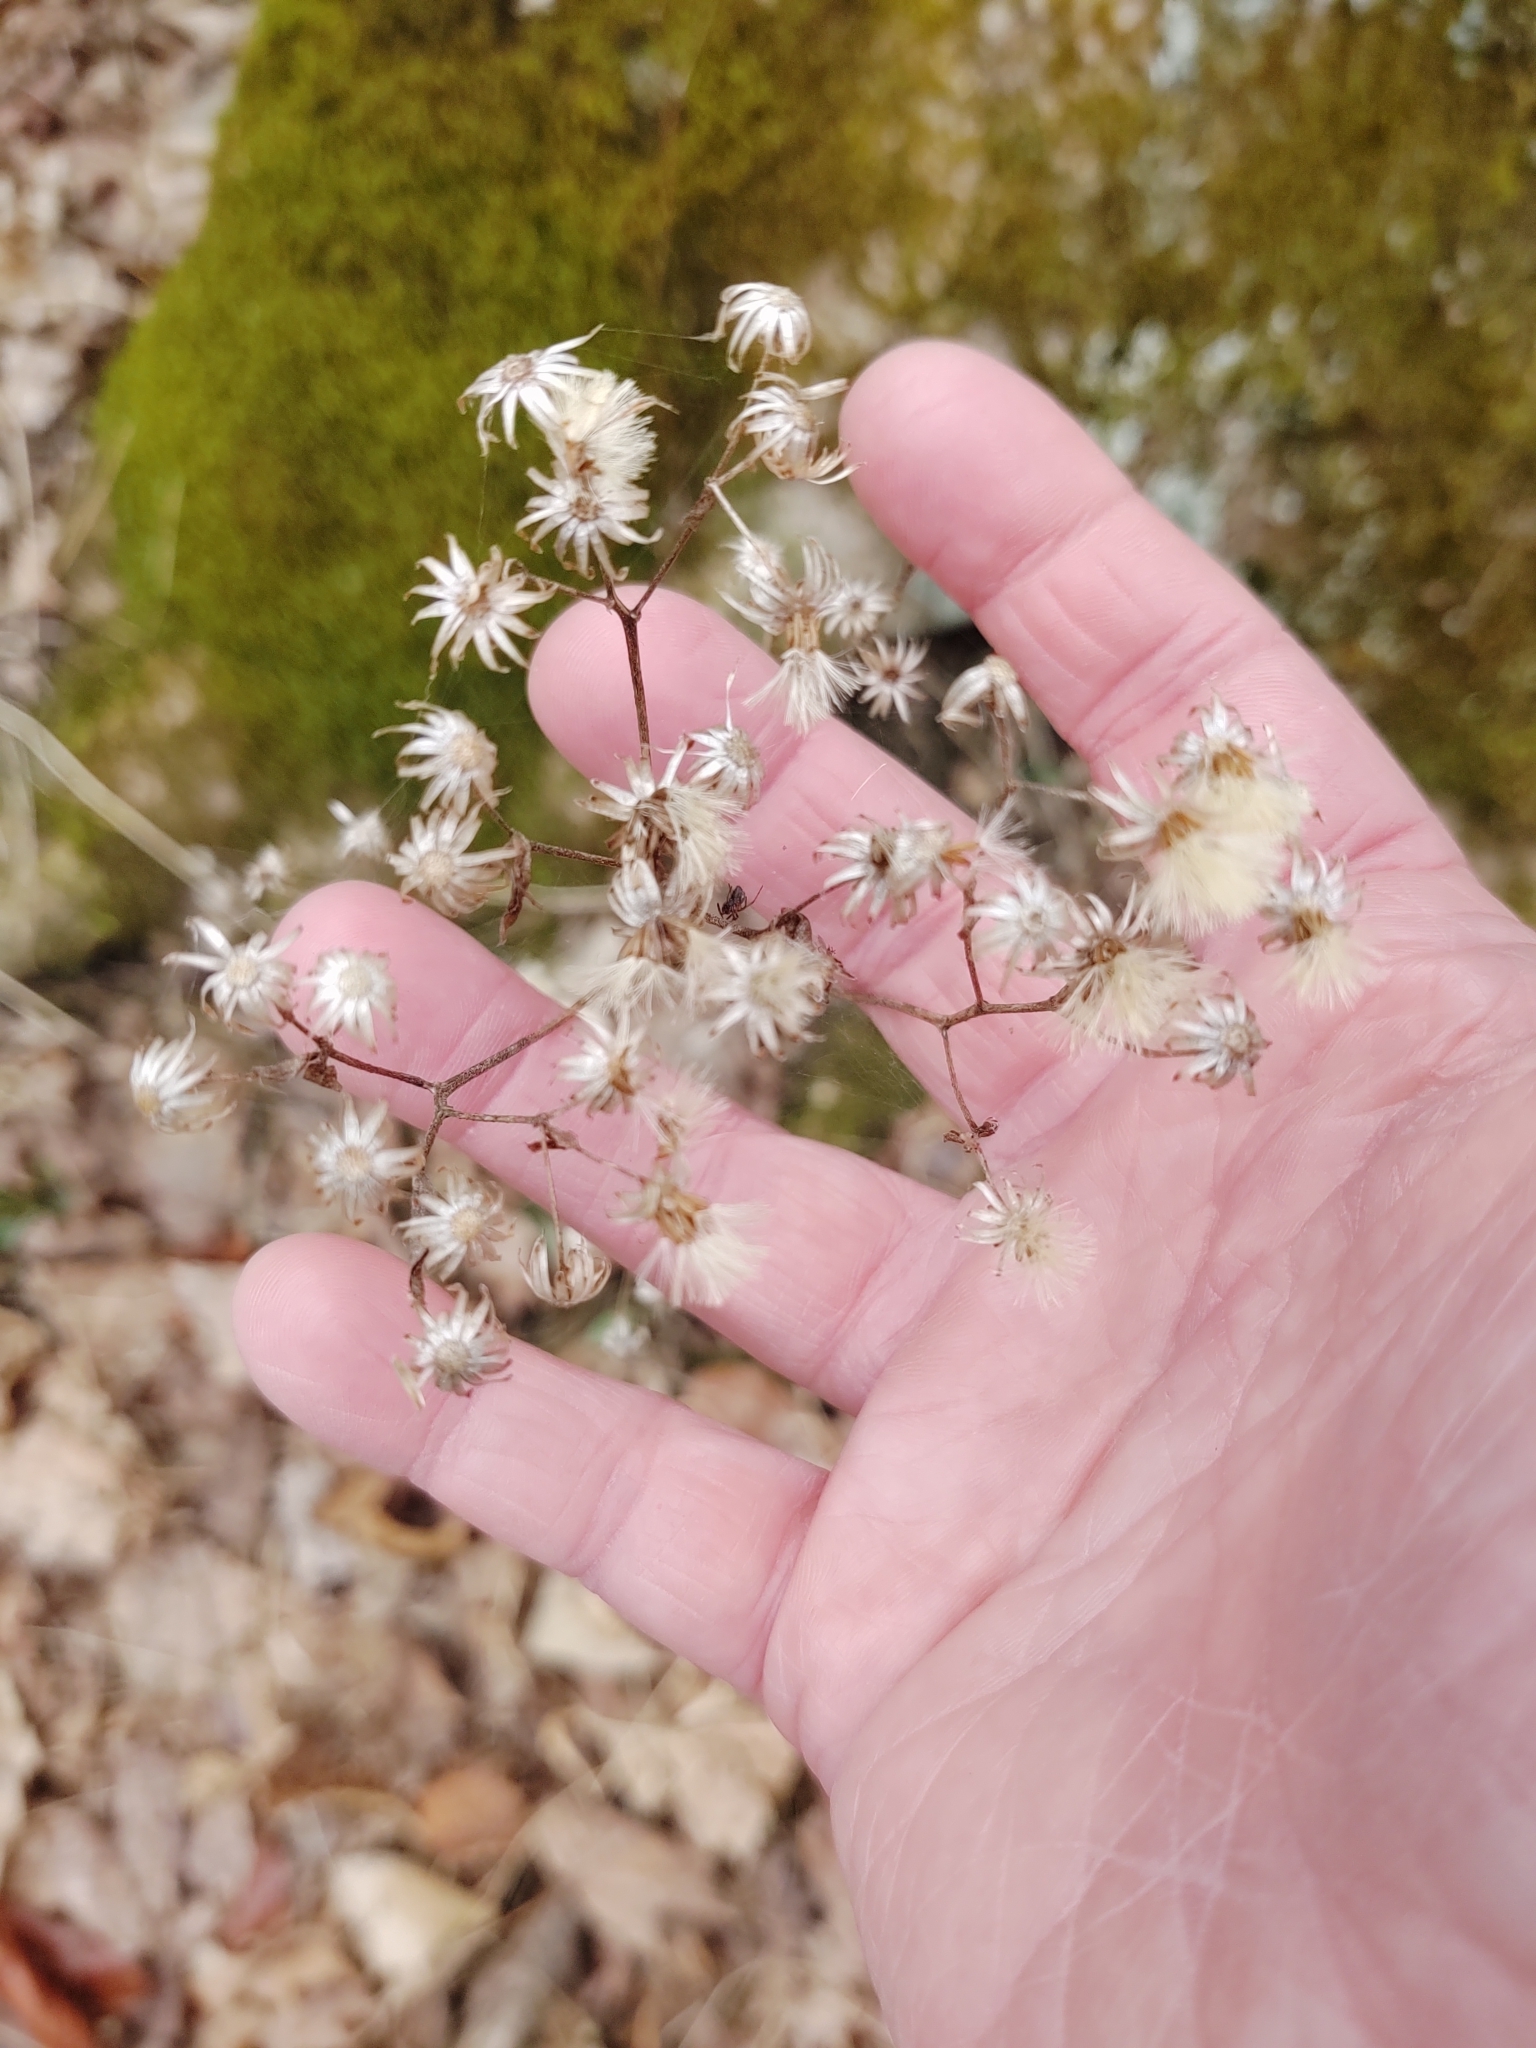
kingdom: Plantae
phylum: Tracheophyta
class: Magnoliopsida
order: Asterales
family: Asteraceae
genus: Eurybia
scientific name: Eurybia divaricata
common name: White wood aster
